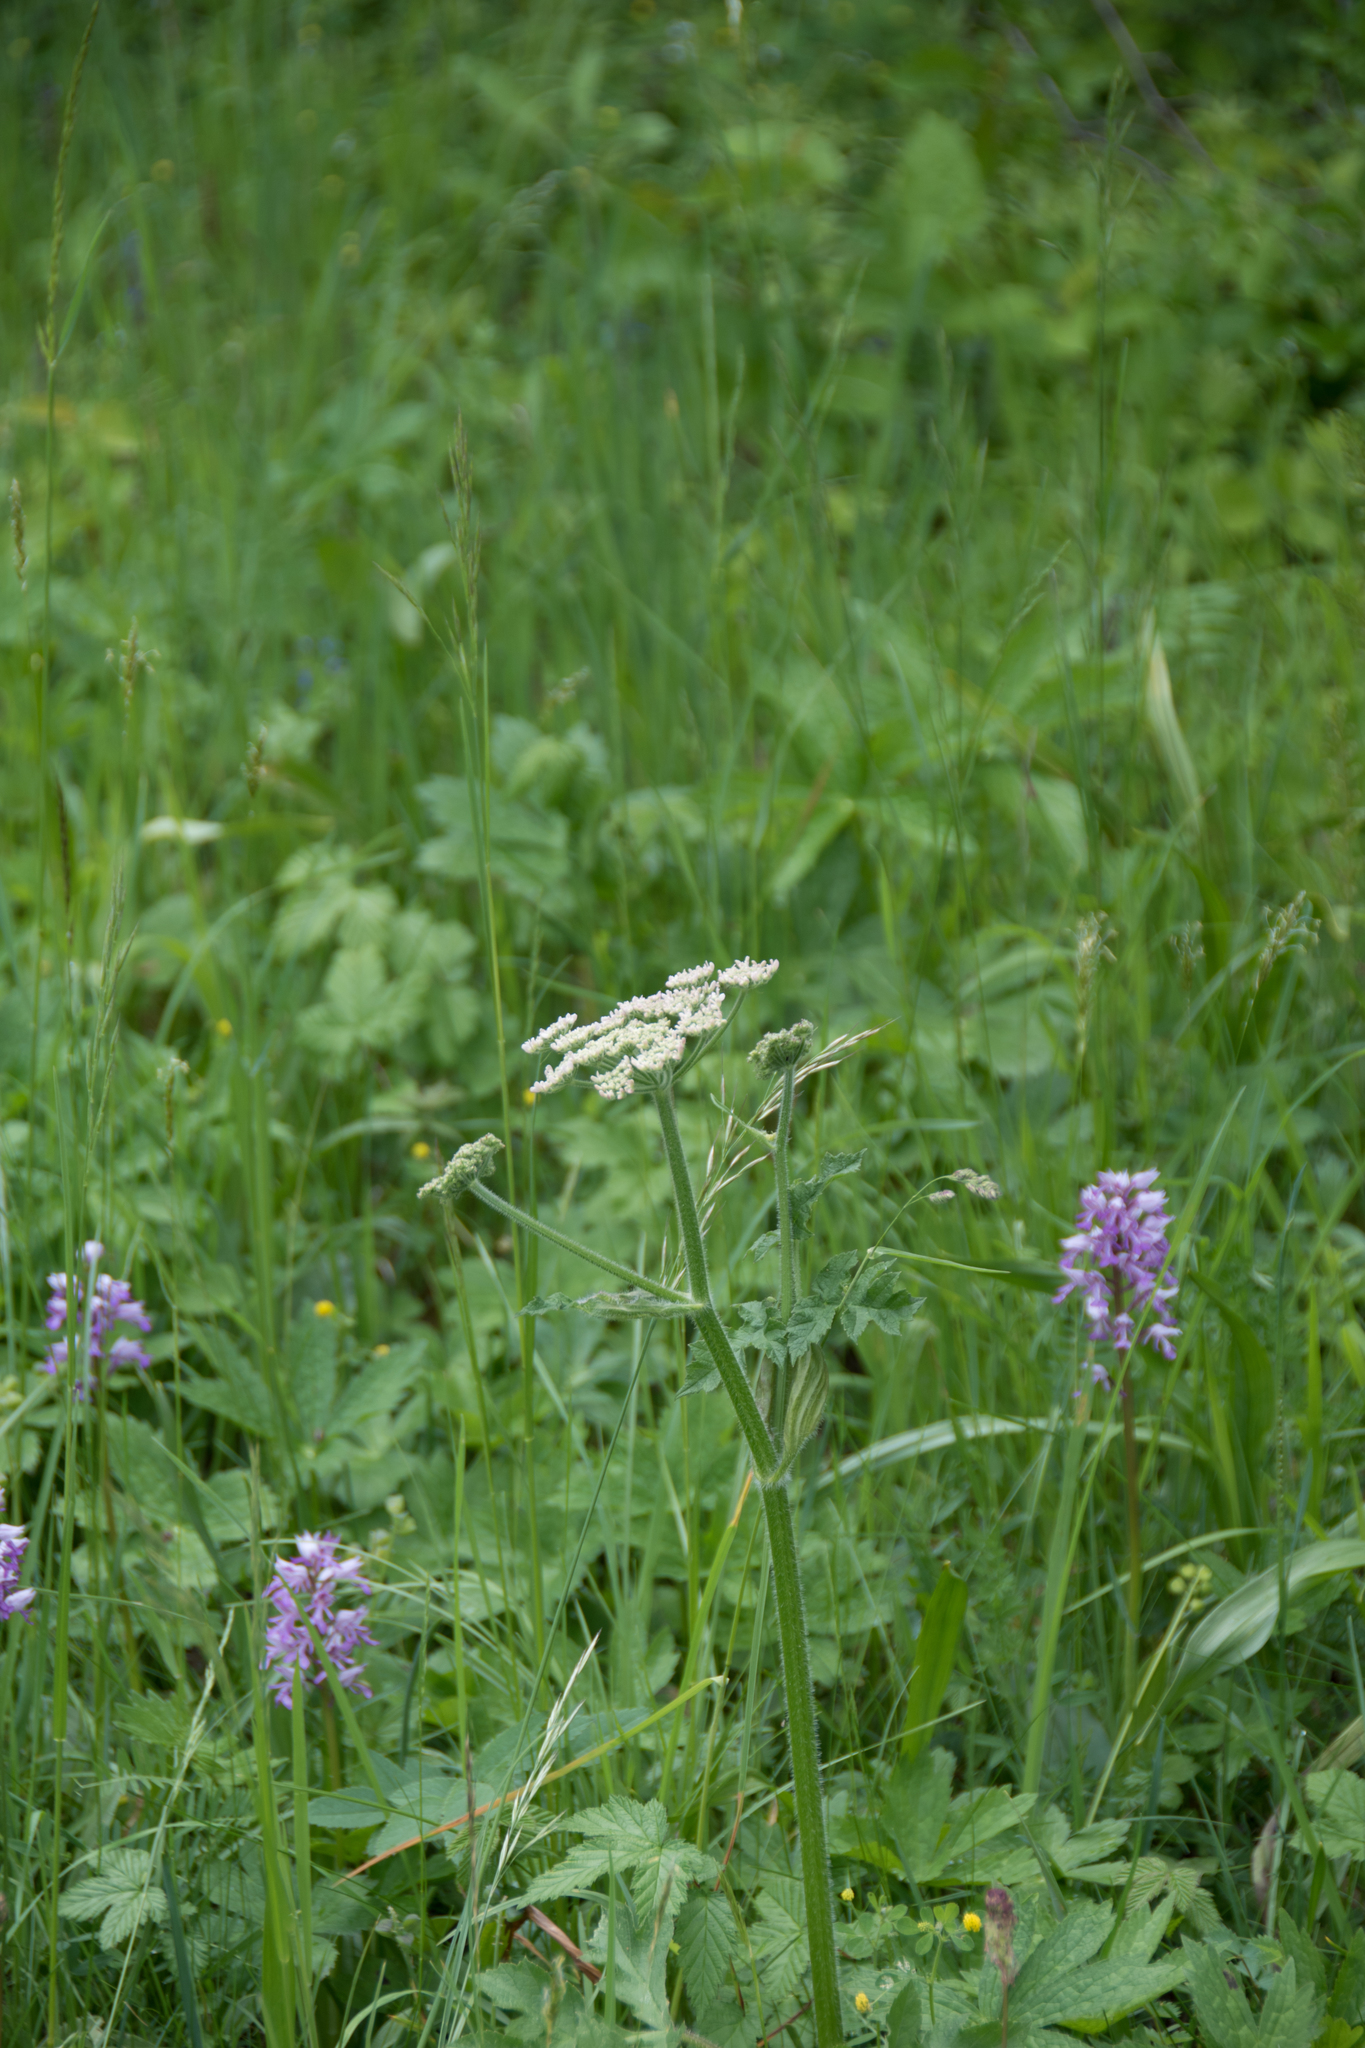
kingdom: Plantae
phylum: Tracheophyta
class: Magnoliopsida
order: Apiales
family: Apiaceae
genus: Heracleum
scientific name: Heracleum sphondylium
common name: Hogweed
